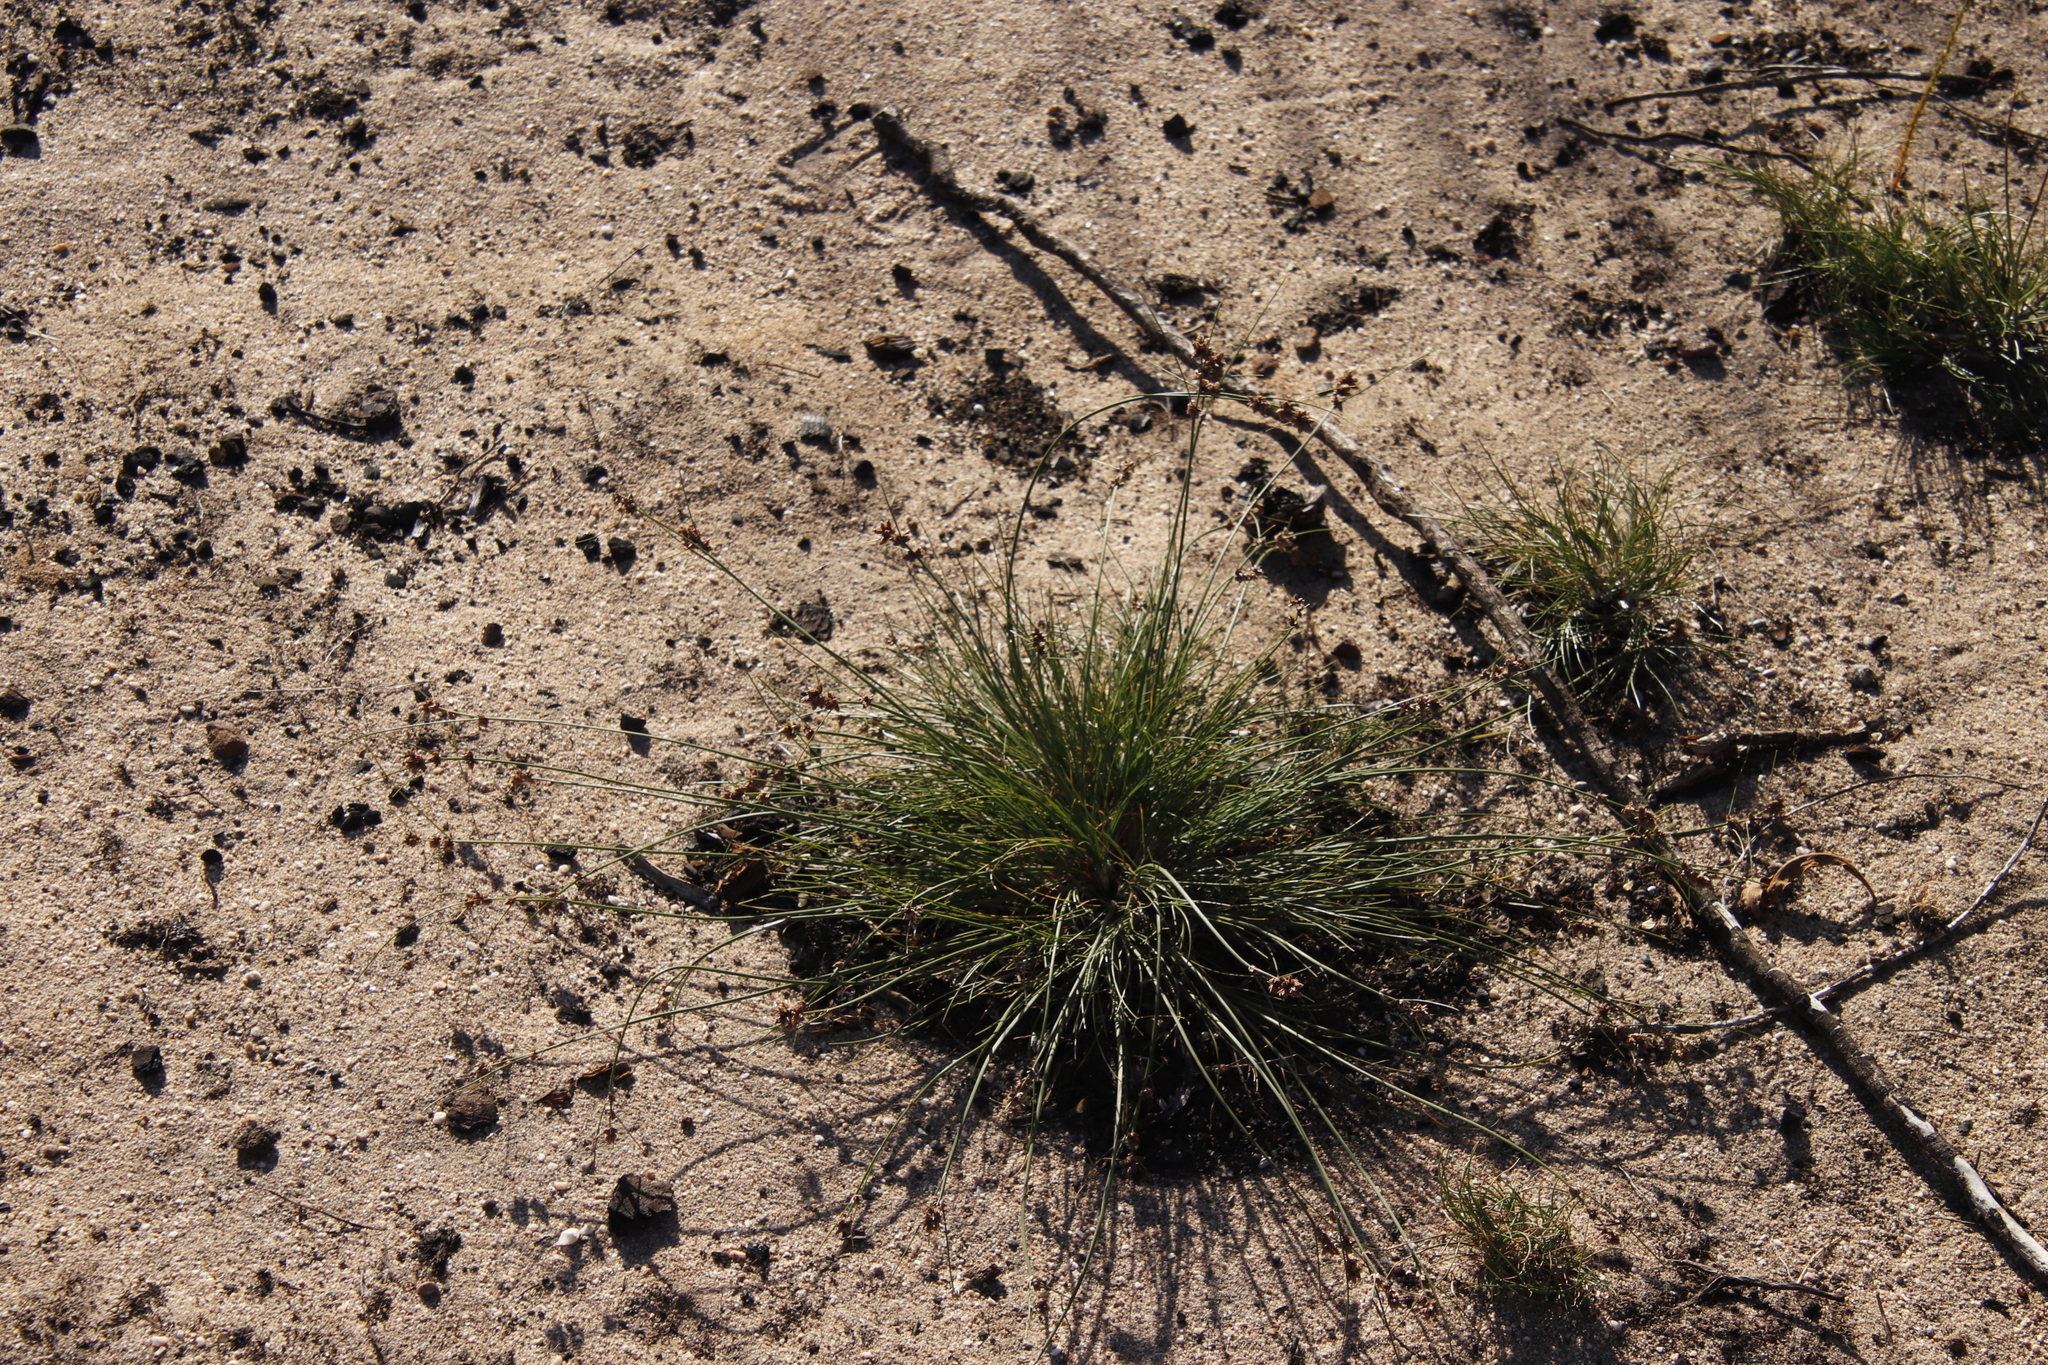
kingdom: Plantae
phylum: Tracheophyta
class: Liliopsida
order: Poales
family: Cyperaceae
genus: Ficinia
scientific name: Ficinia bulbosa
